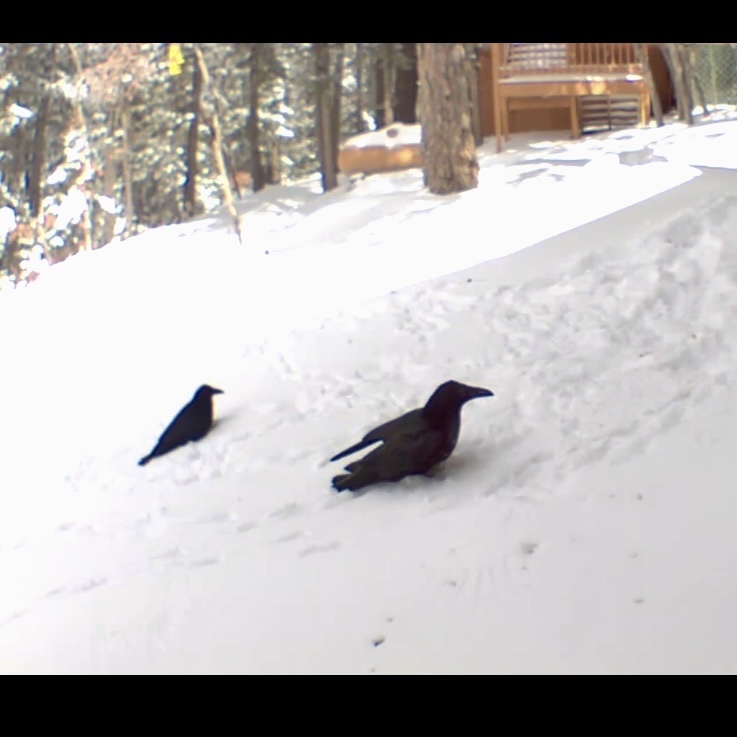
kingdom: Animalia
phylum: Chordata
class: Aves
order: Passeriformes
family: Corvidae
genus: Corvus
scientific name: Corvus corax
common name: Common raven
